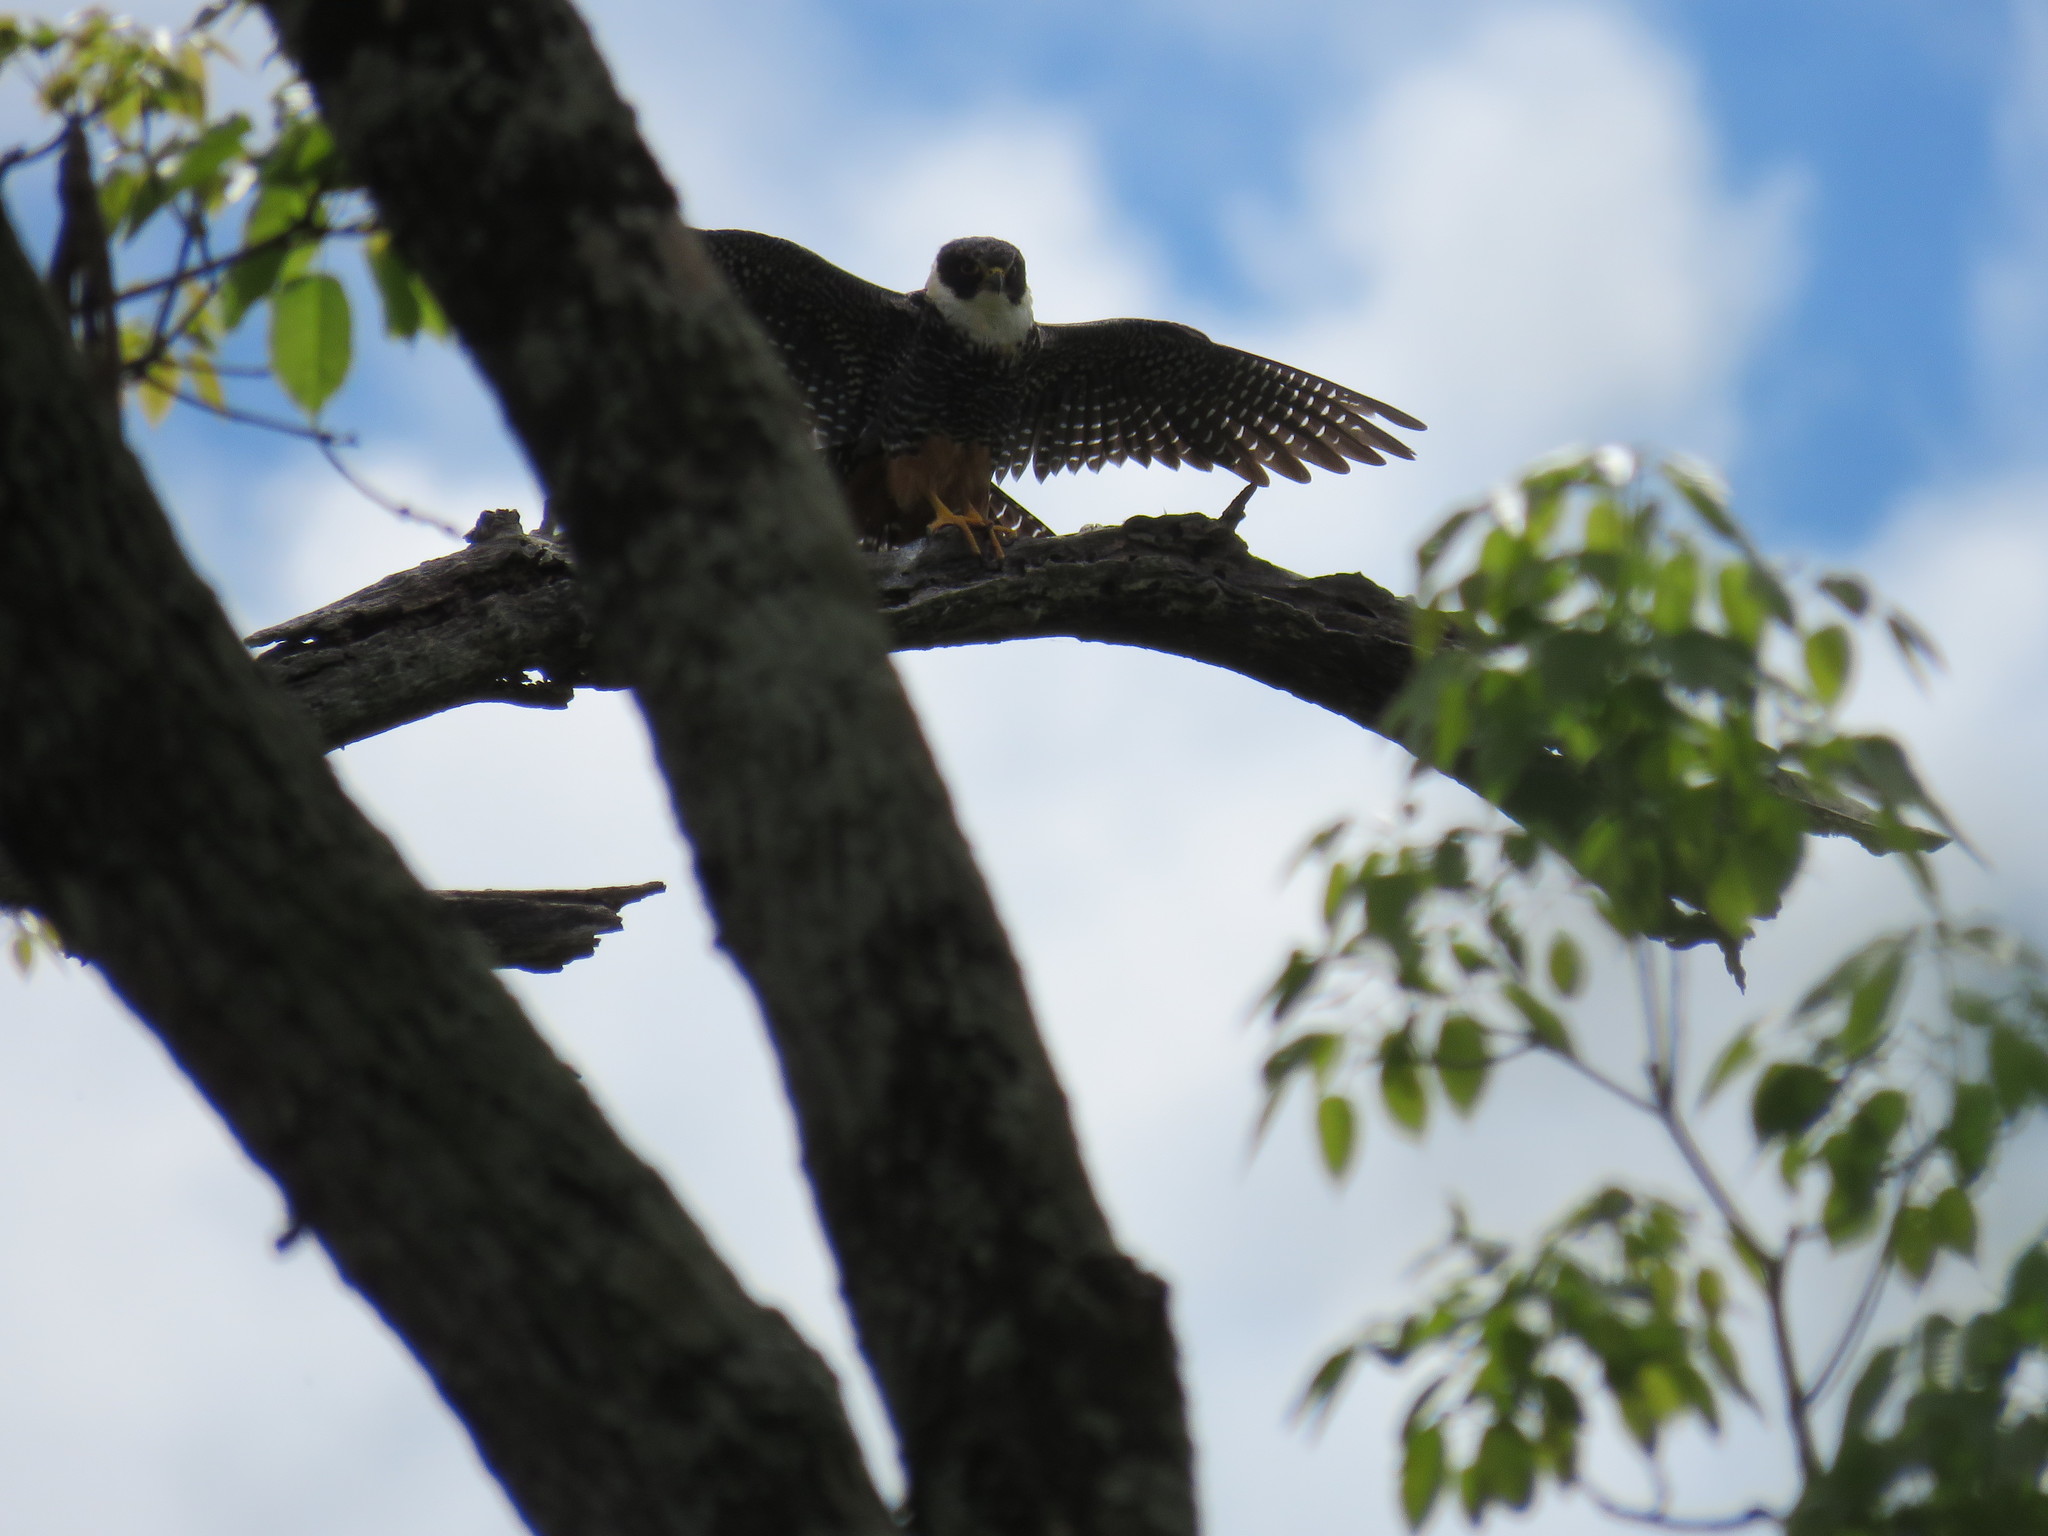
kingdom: Animalia
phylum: Chordata
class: Aves
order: Falconiformes
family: Falconidae
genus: Falco
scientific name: Falco rufigularis
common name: Bat falcon
